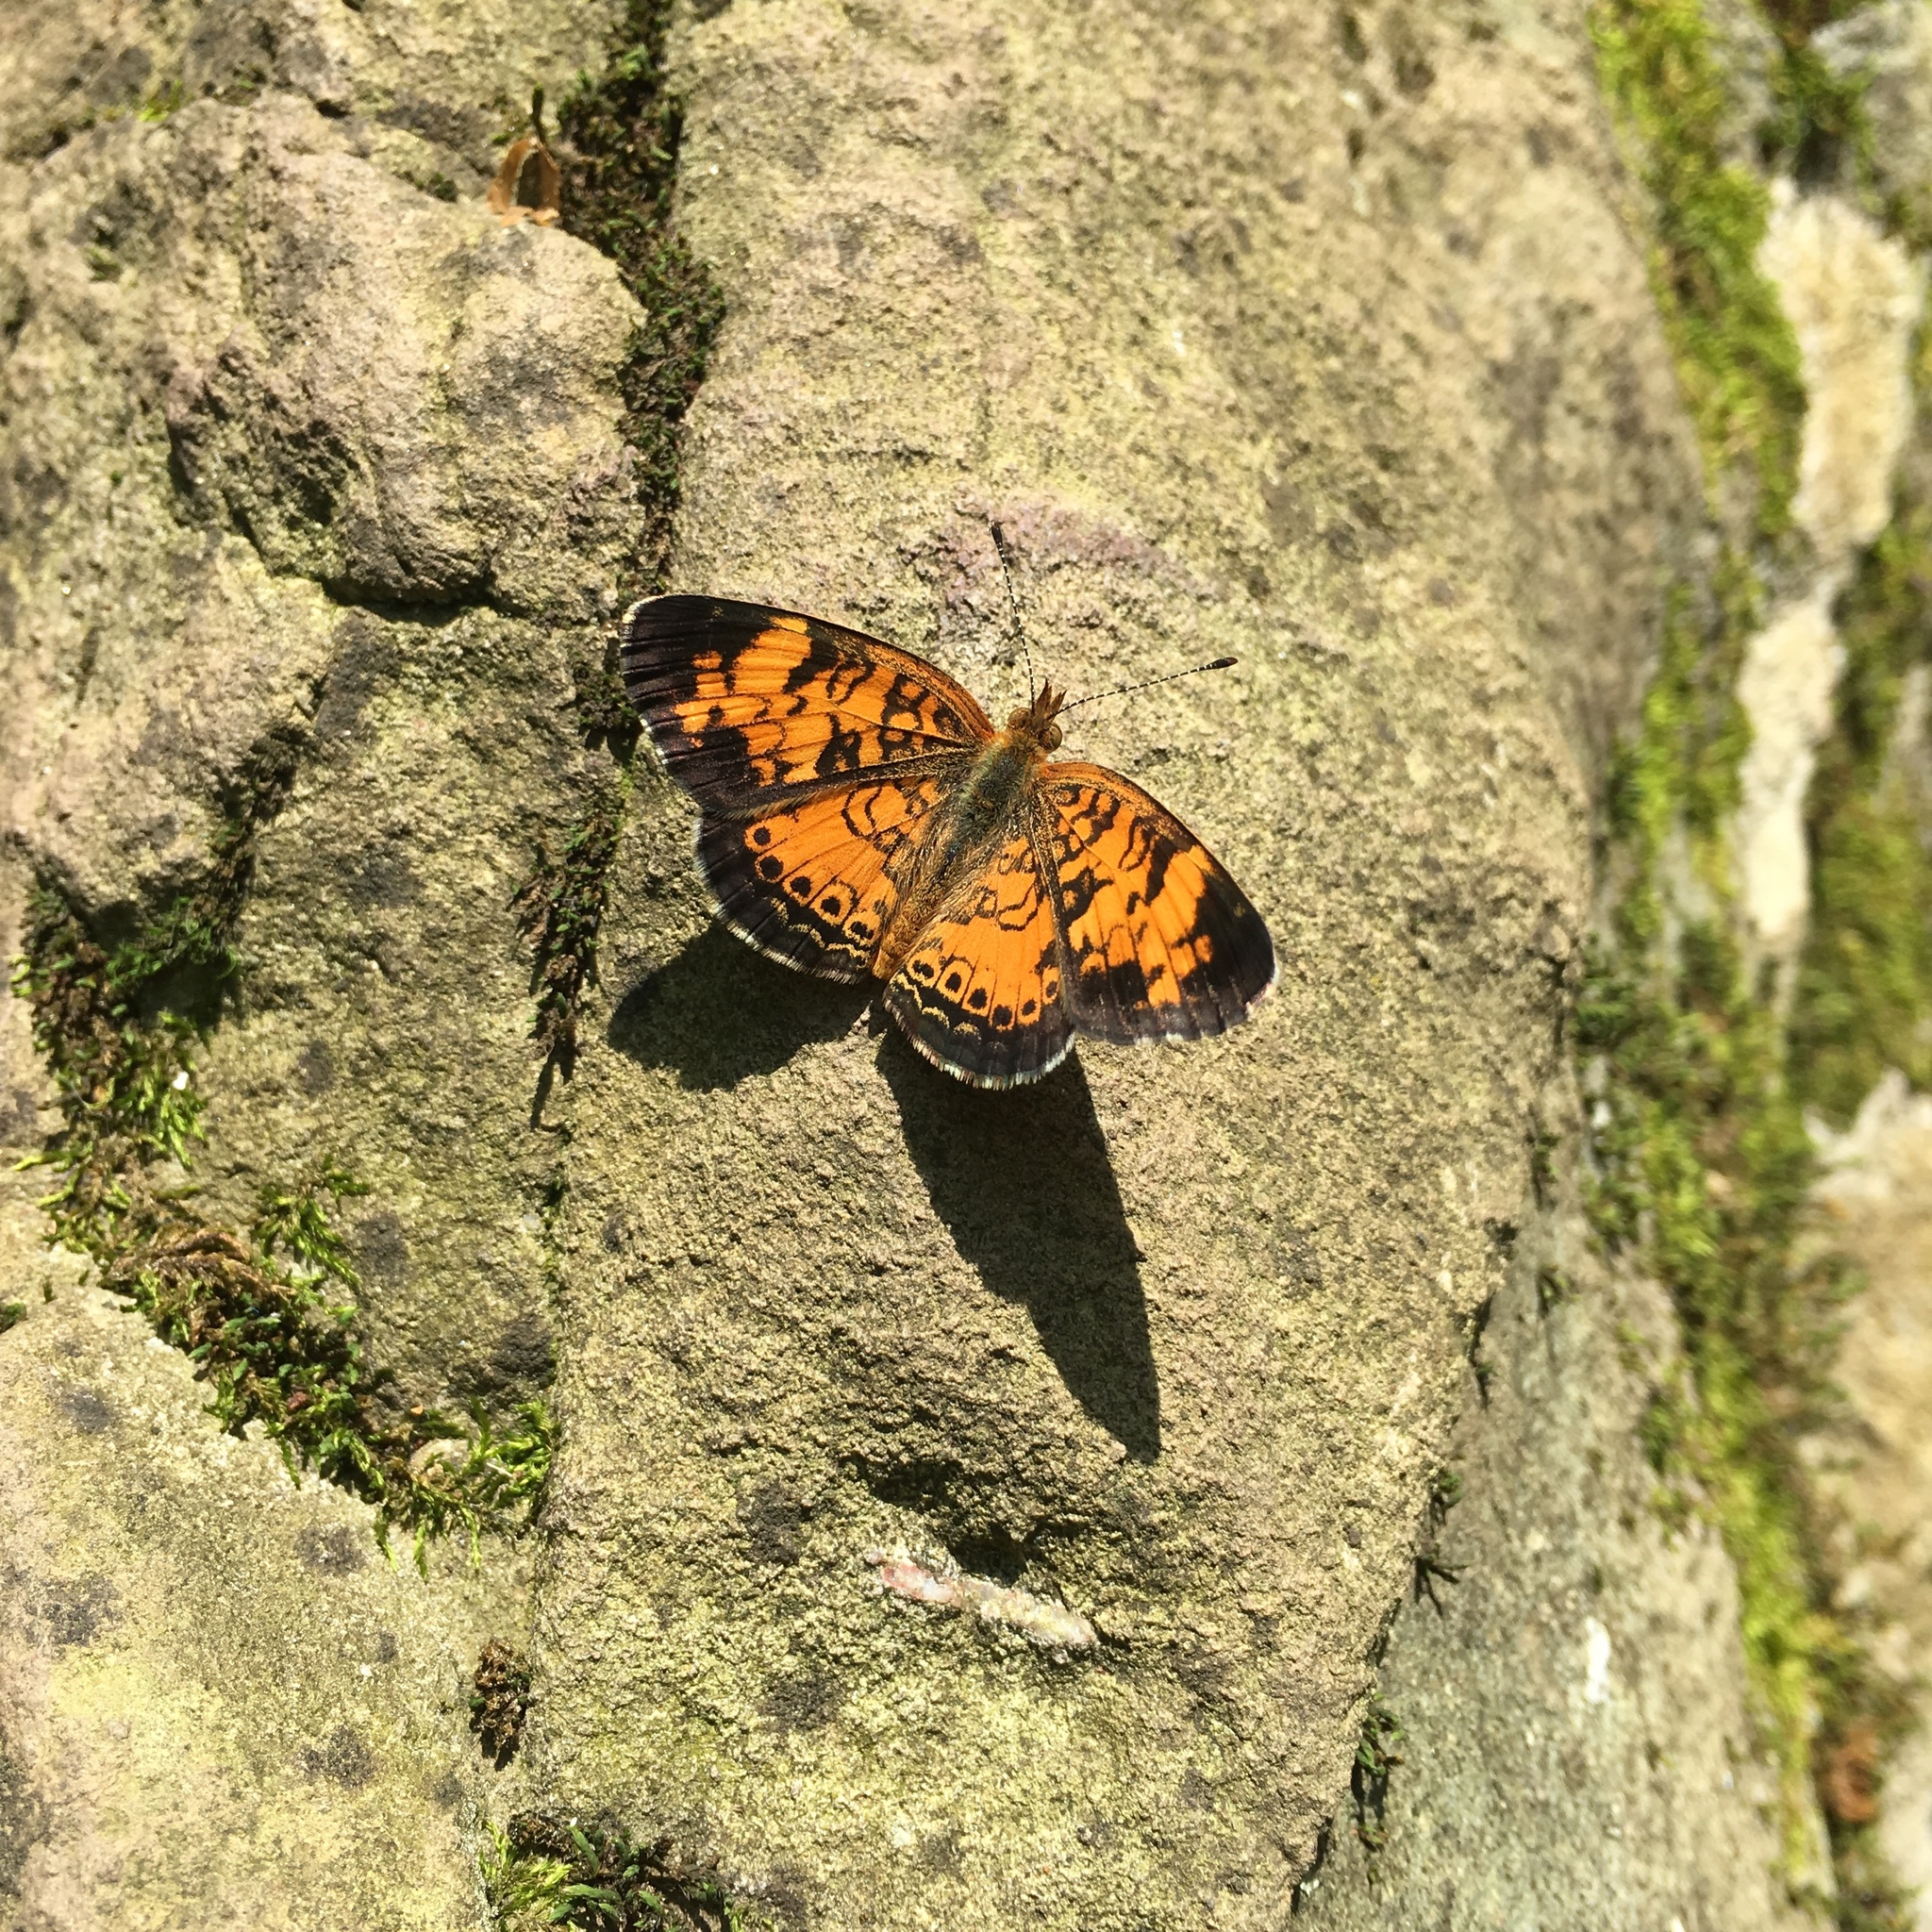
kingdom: Animalia
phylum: Arthropoda
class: Insecta
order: Lepidoptera
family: Nymphalidae
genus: Phyciodes
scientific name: Phyciodes tharos
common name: Pearl crescent
